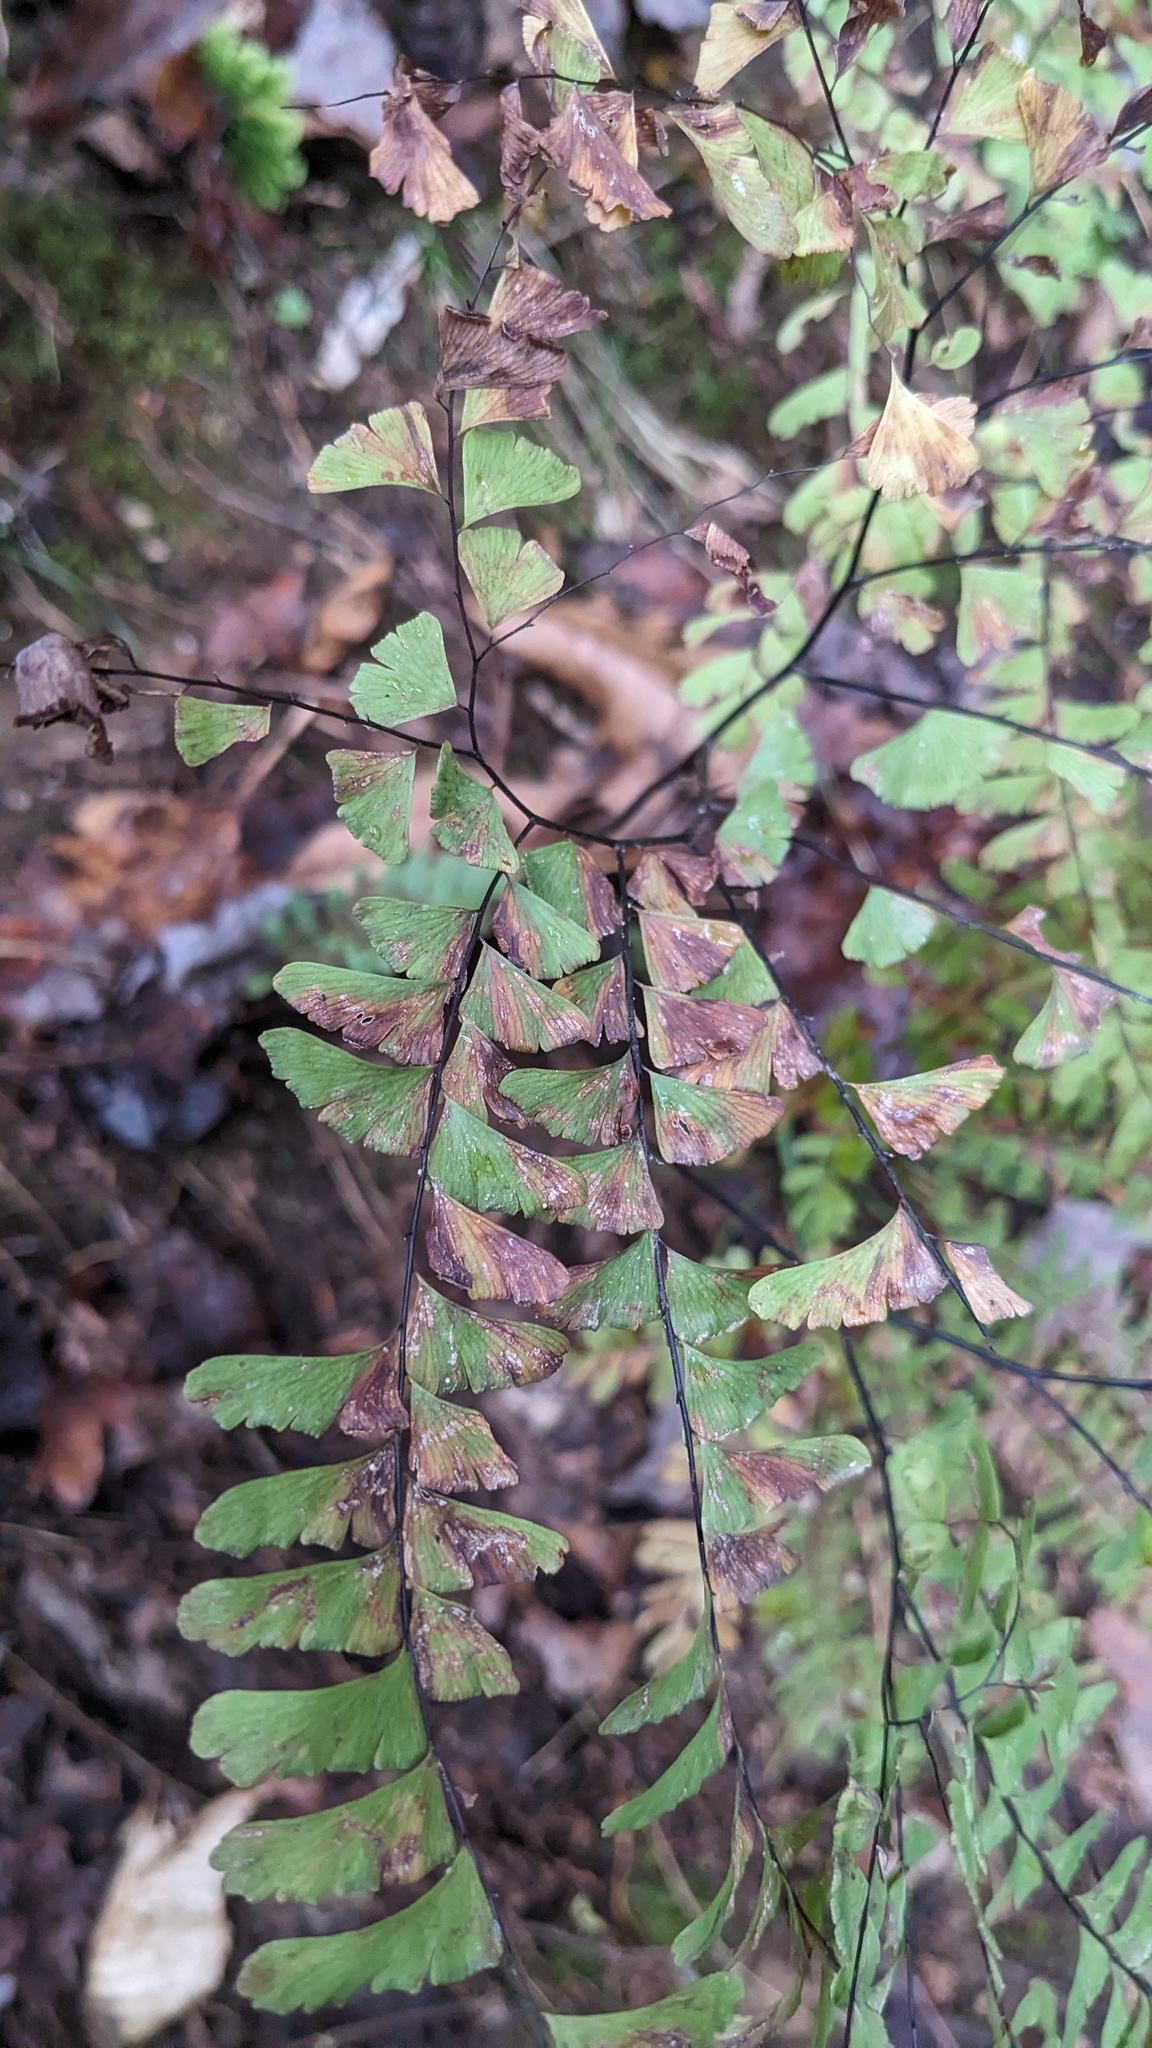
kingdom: Plantae
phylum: Tracheophyta
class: Polypodiopsida
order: Polypodiales
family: Pteridaceae
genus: Adiantum
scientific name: Adiantum pedatum
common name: Five-finger fern
